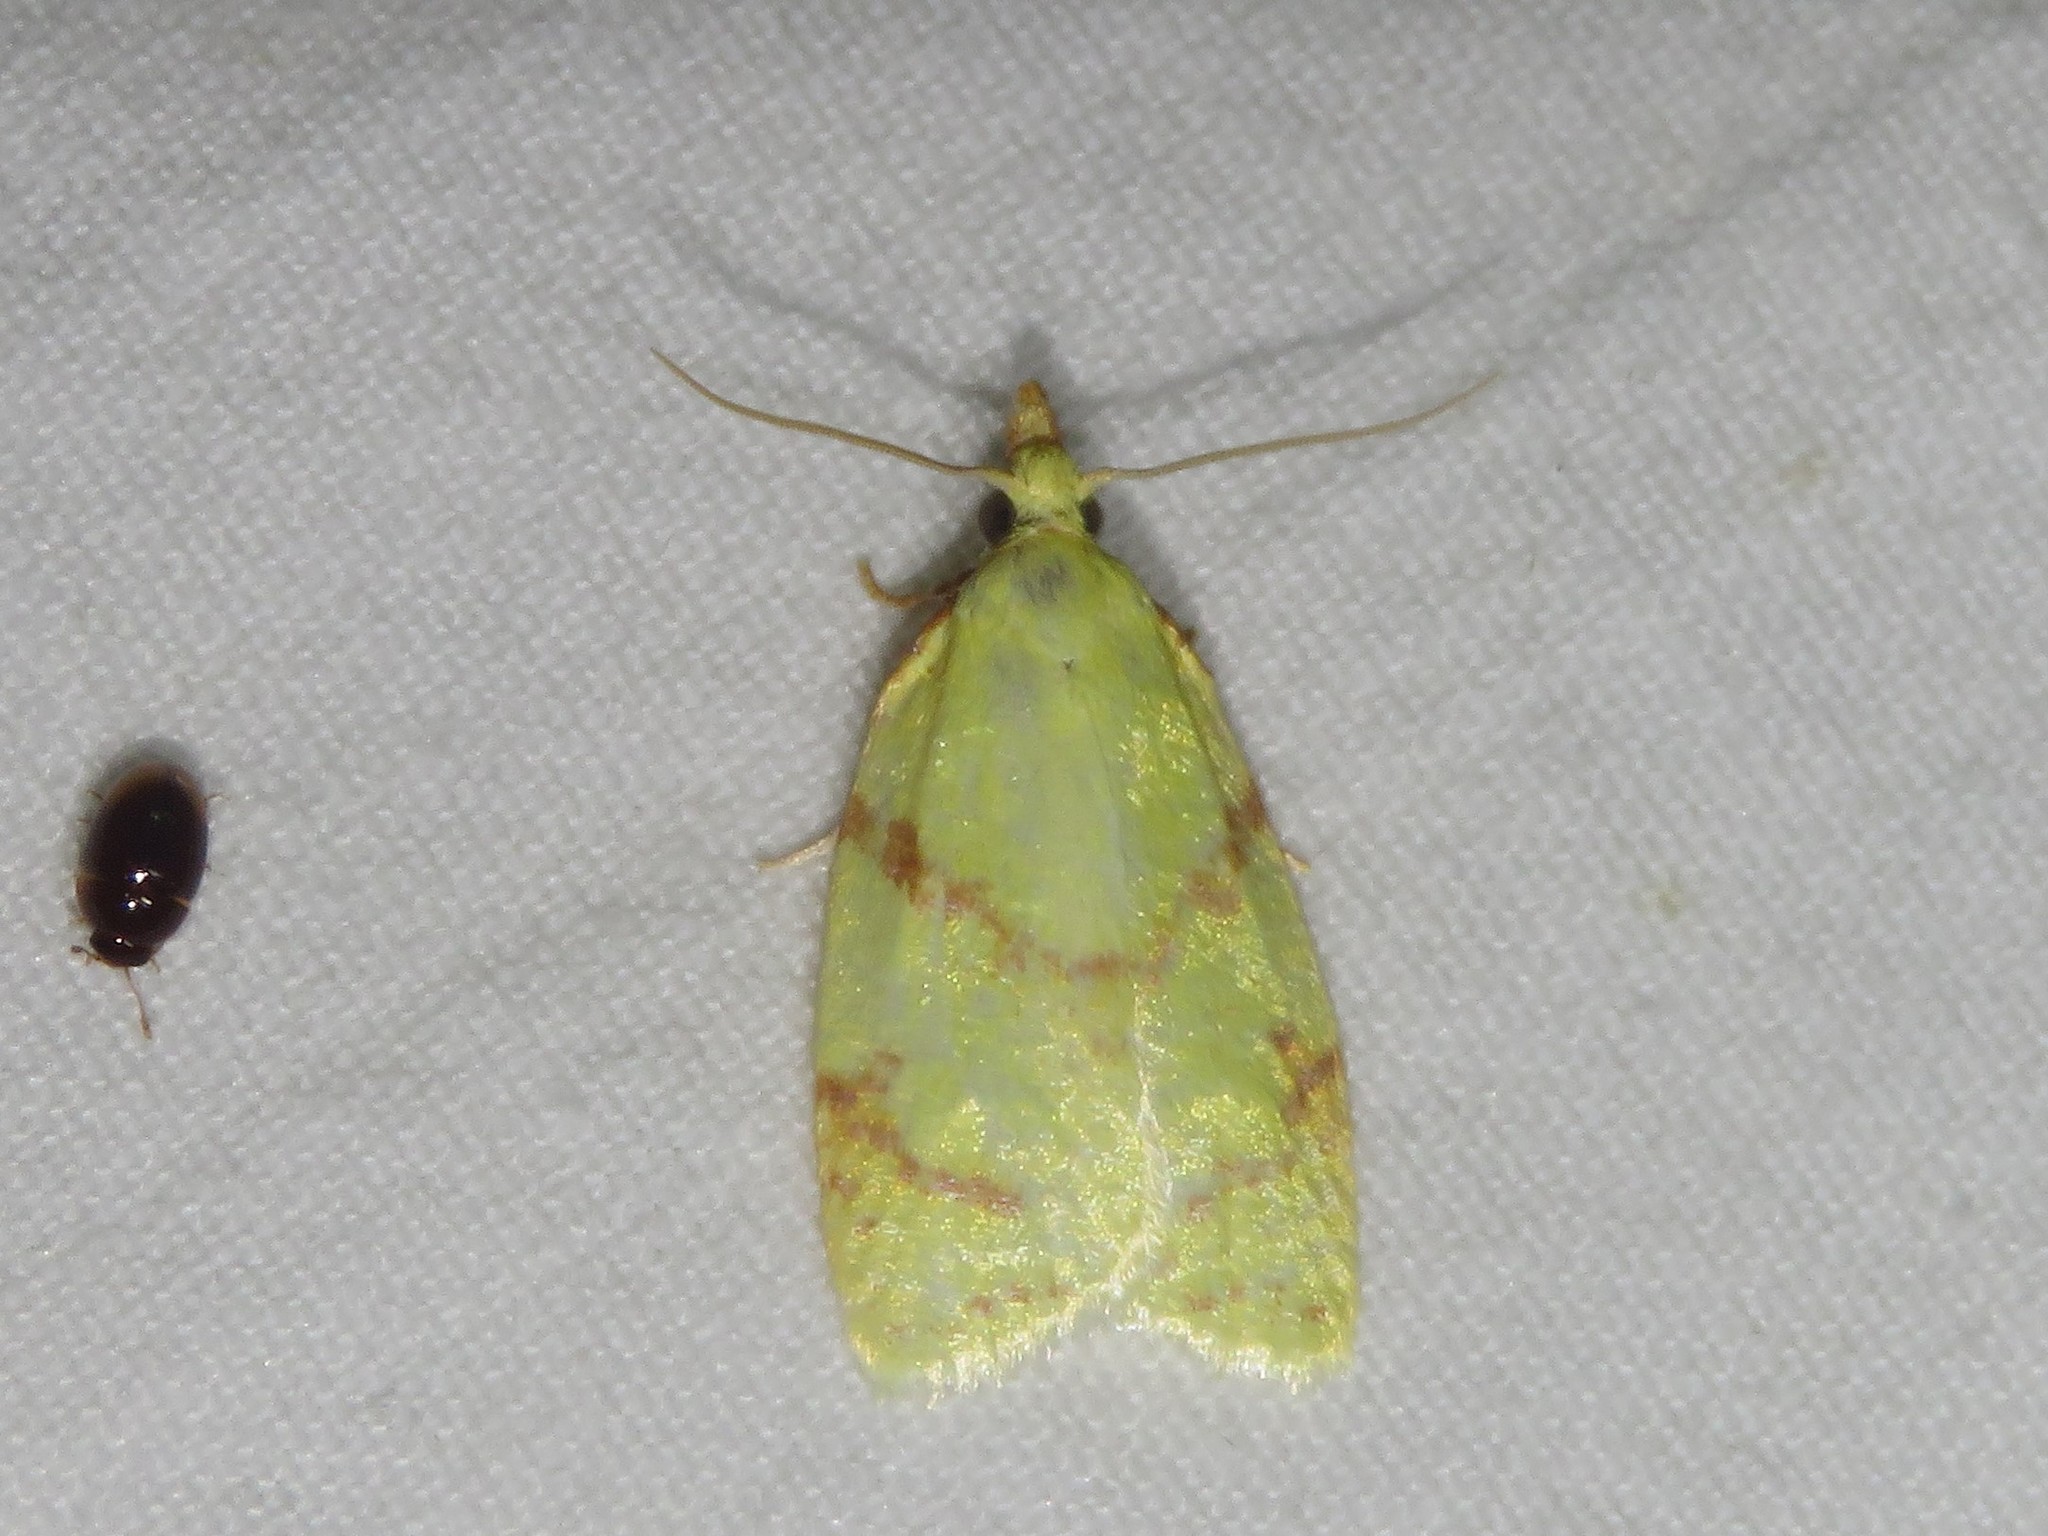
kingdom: Animalia
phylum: Arthropoda
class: Insecta
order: Lepidoptera
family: Tortricidae
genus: Cenopis
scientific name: Cenopis pettitana
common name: Maple-basswood leafroller moth
